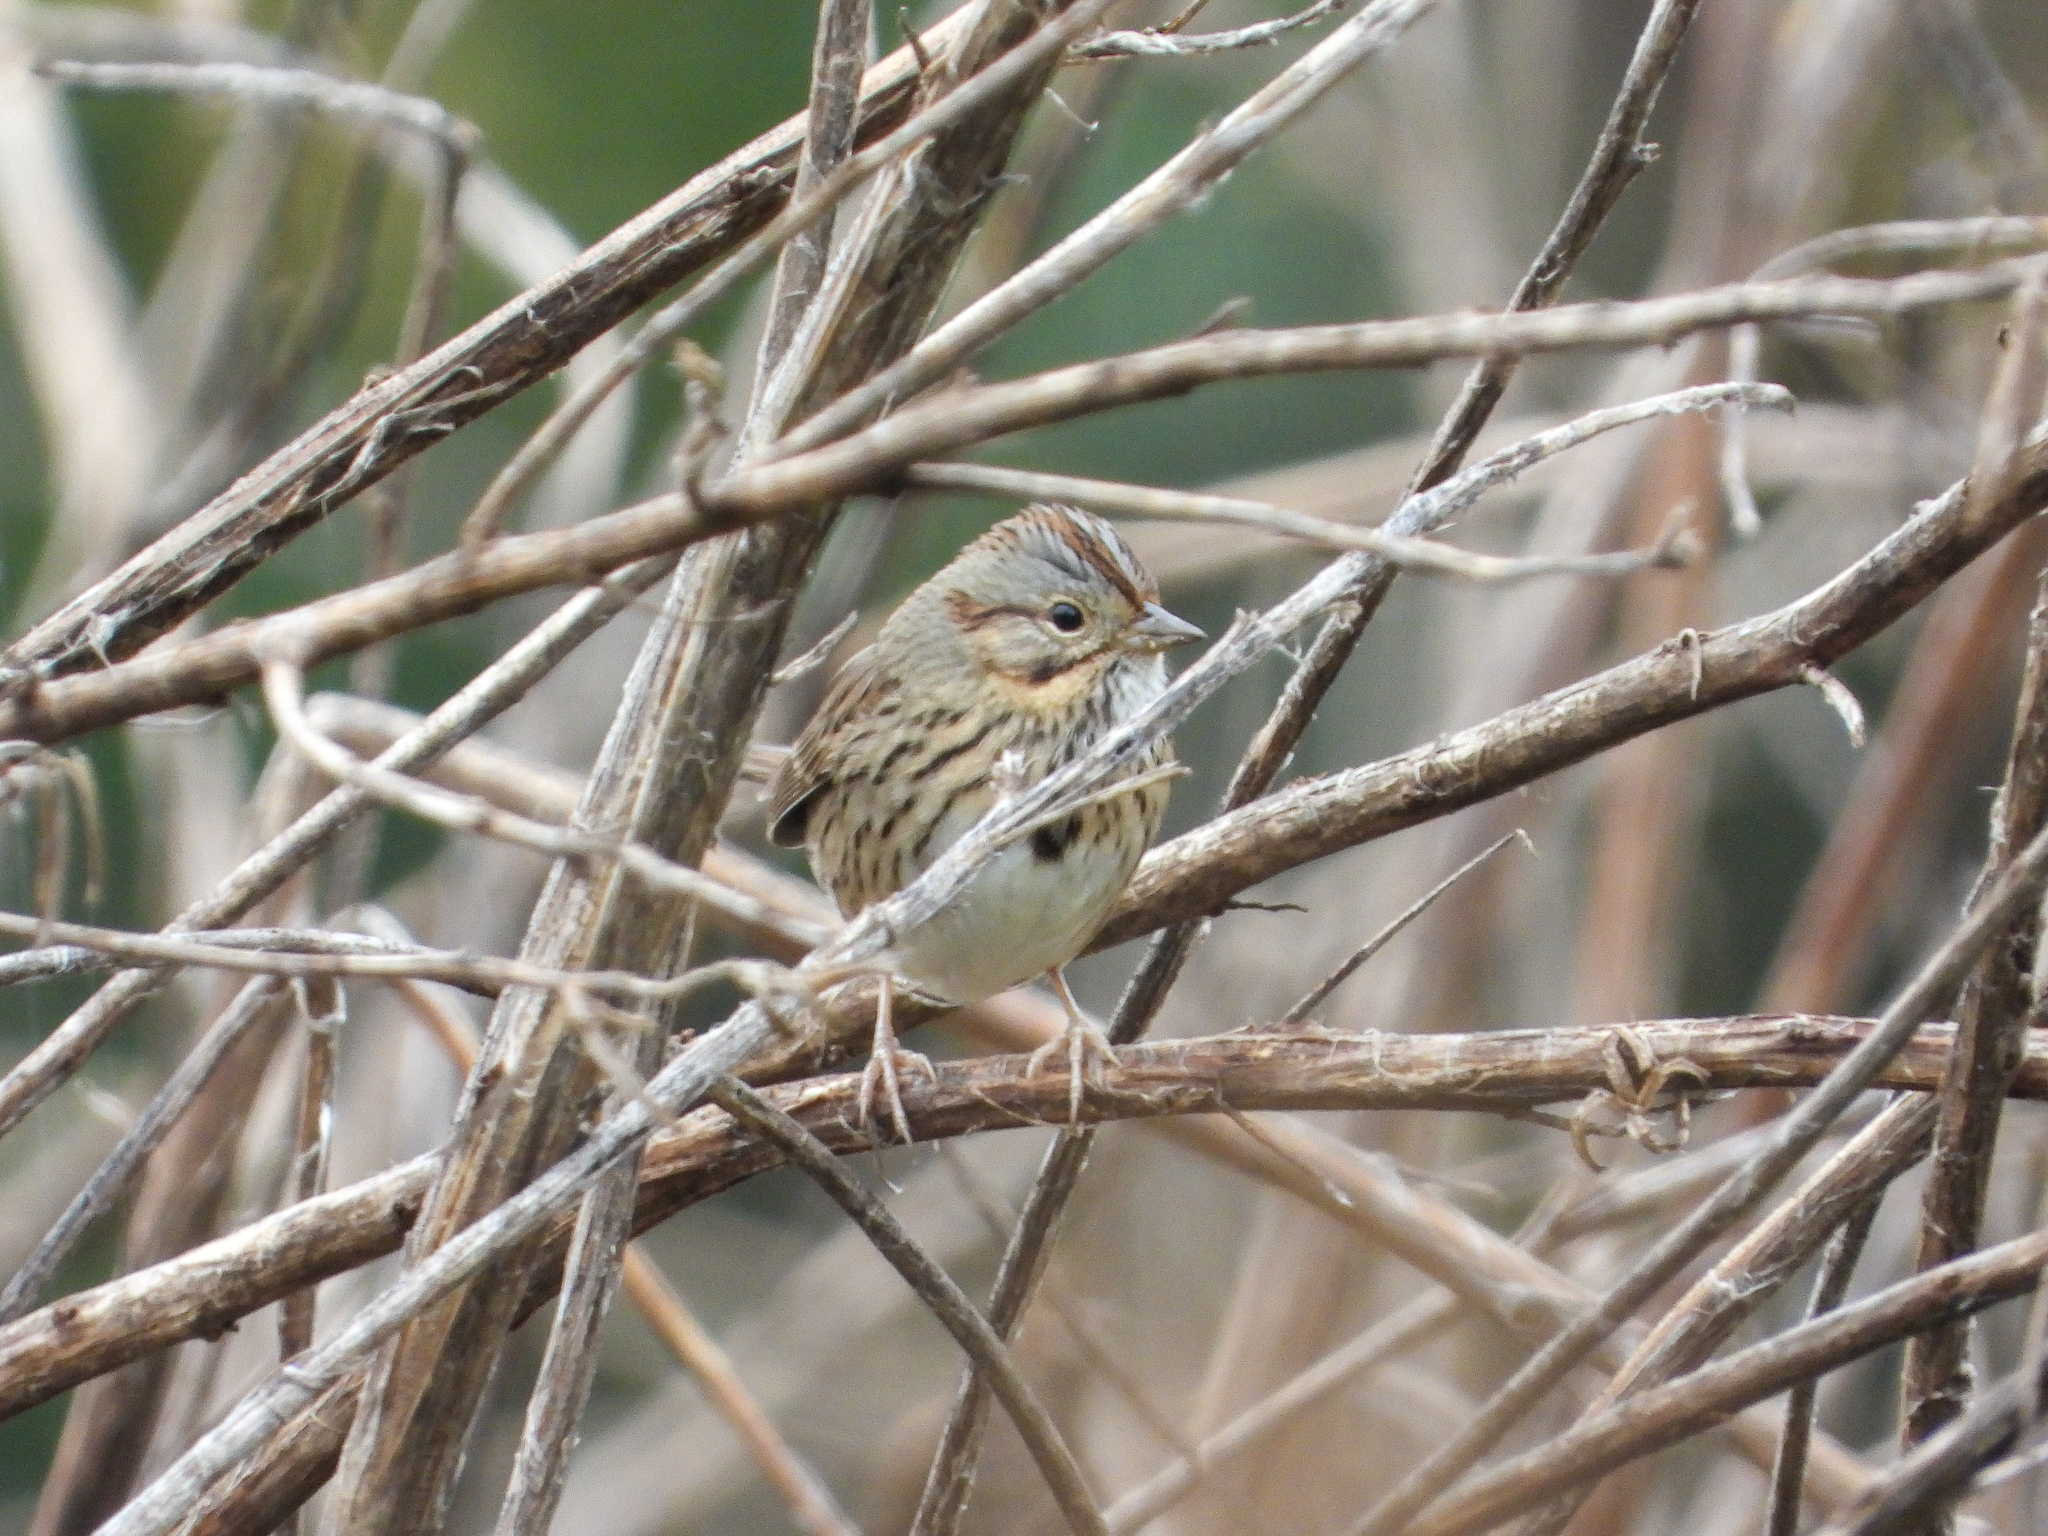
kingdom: Animalia
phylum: Chordata
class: Aves
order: Passeriformes
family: Passerellidae
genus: Melospiza
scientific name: Melospiza lincolnii
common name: Lincoln's sparrow
